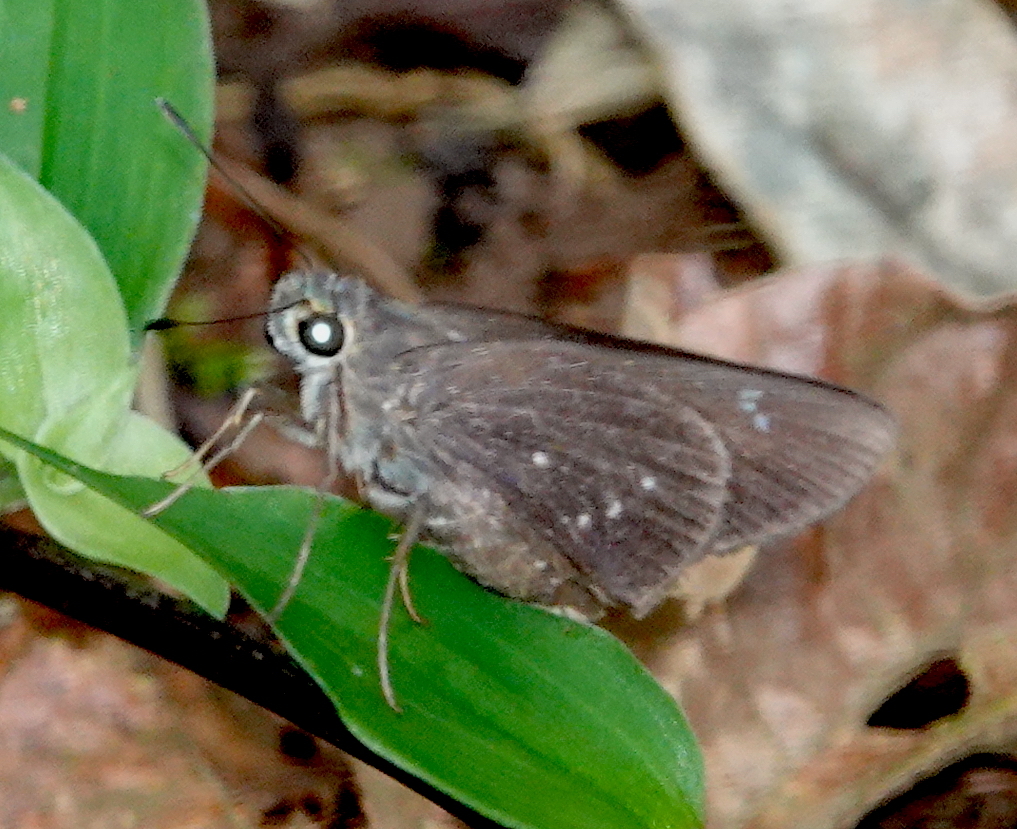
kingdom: Animalia
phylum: Arthropoda
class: Insecta
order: Lepidoptera
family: Hesperiidae
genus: Rhinthon
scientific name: Rhinthon cubana
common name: Cuban skipper
